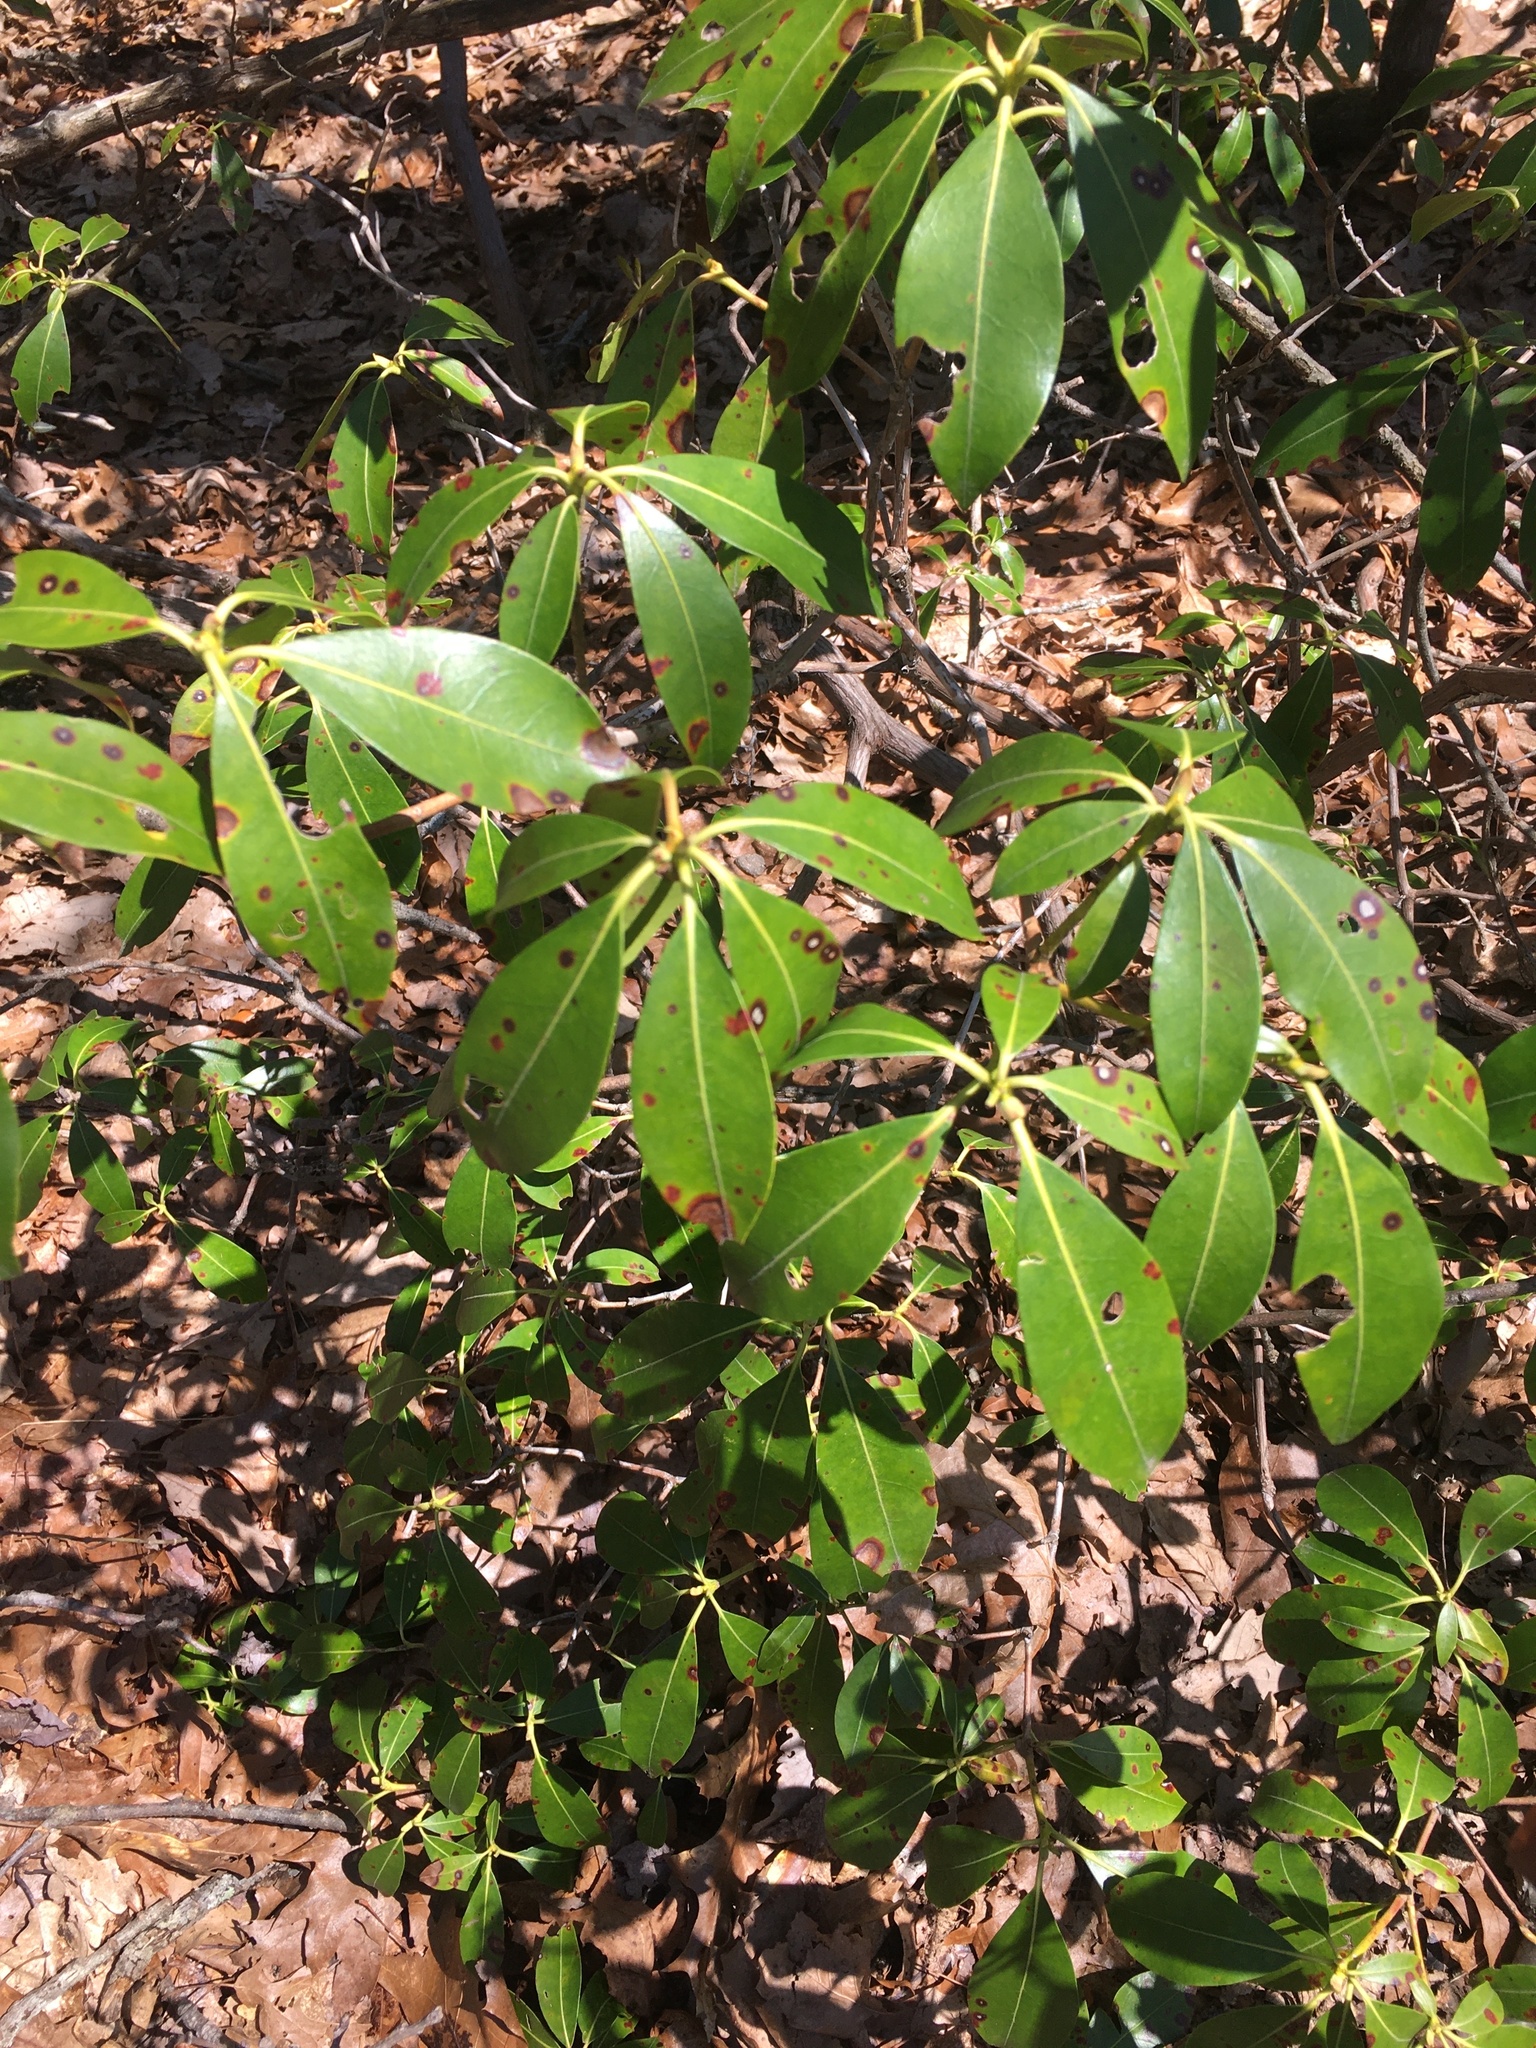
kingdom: Plantae
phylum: Tracheophyta
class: Magnoliopsida
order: Ericales
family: Ericaceae
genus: Kalmia
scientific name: Kalmia latifolia
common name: Mountain-laurel
